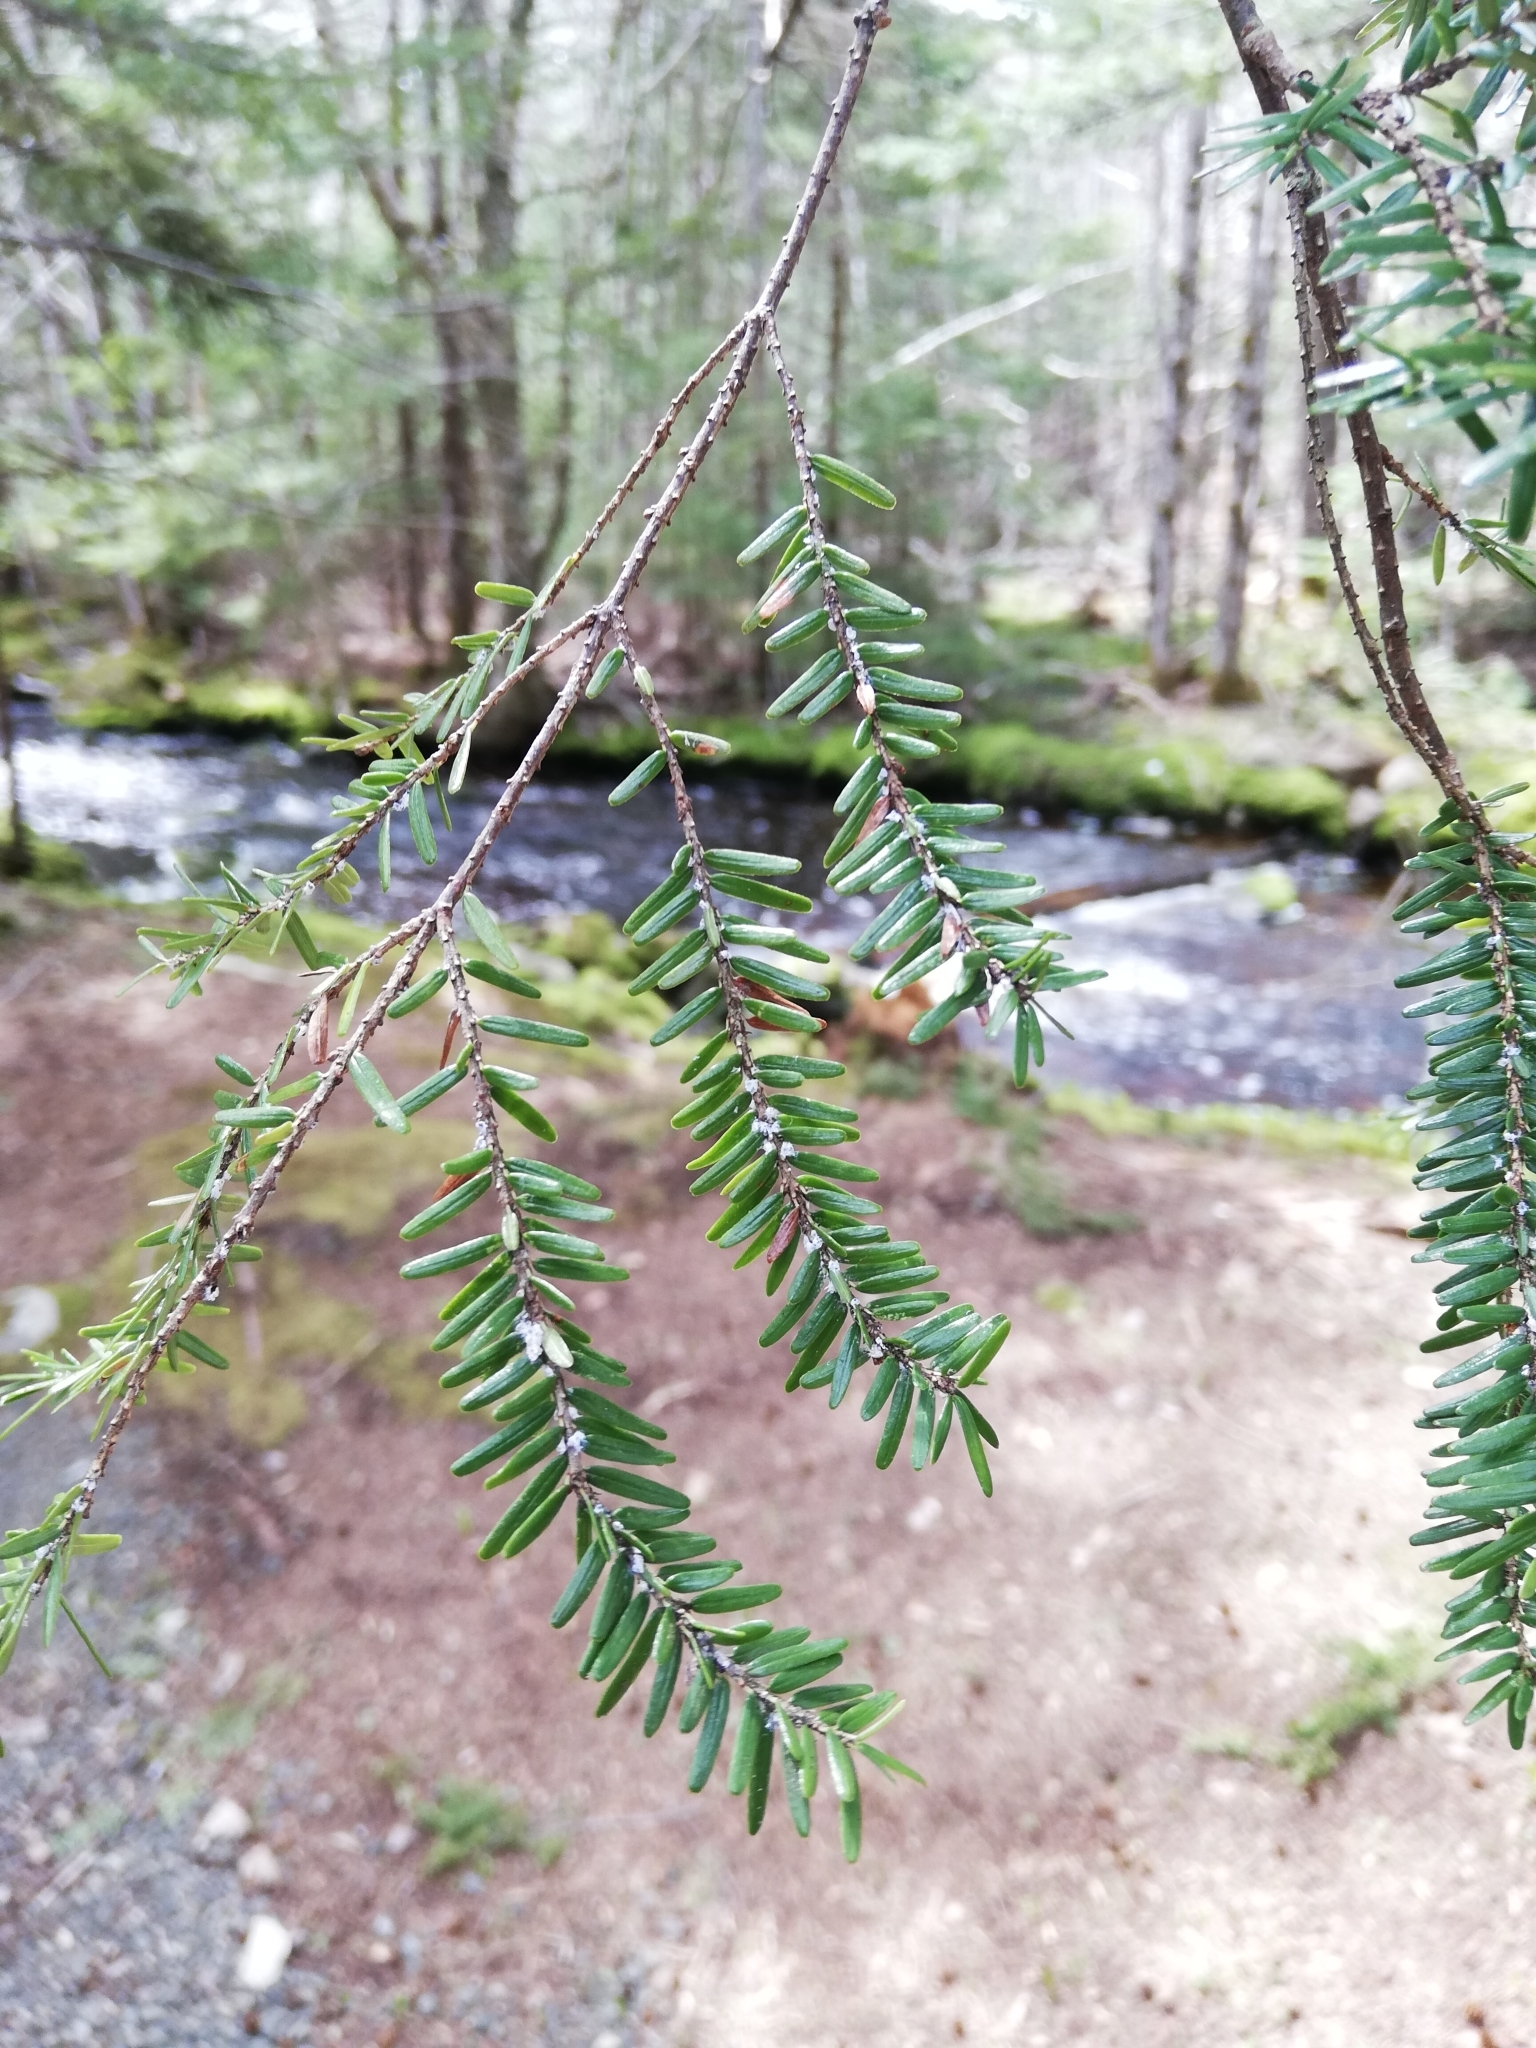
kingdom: Animalia
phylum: Arthropoda
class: Insecta
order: Hemiptera
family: Adelgidae
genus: Adelges
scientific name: Adelges tsugae
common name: Hemlock woolly adelgid
